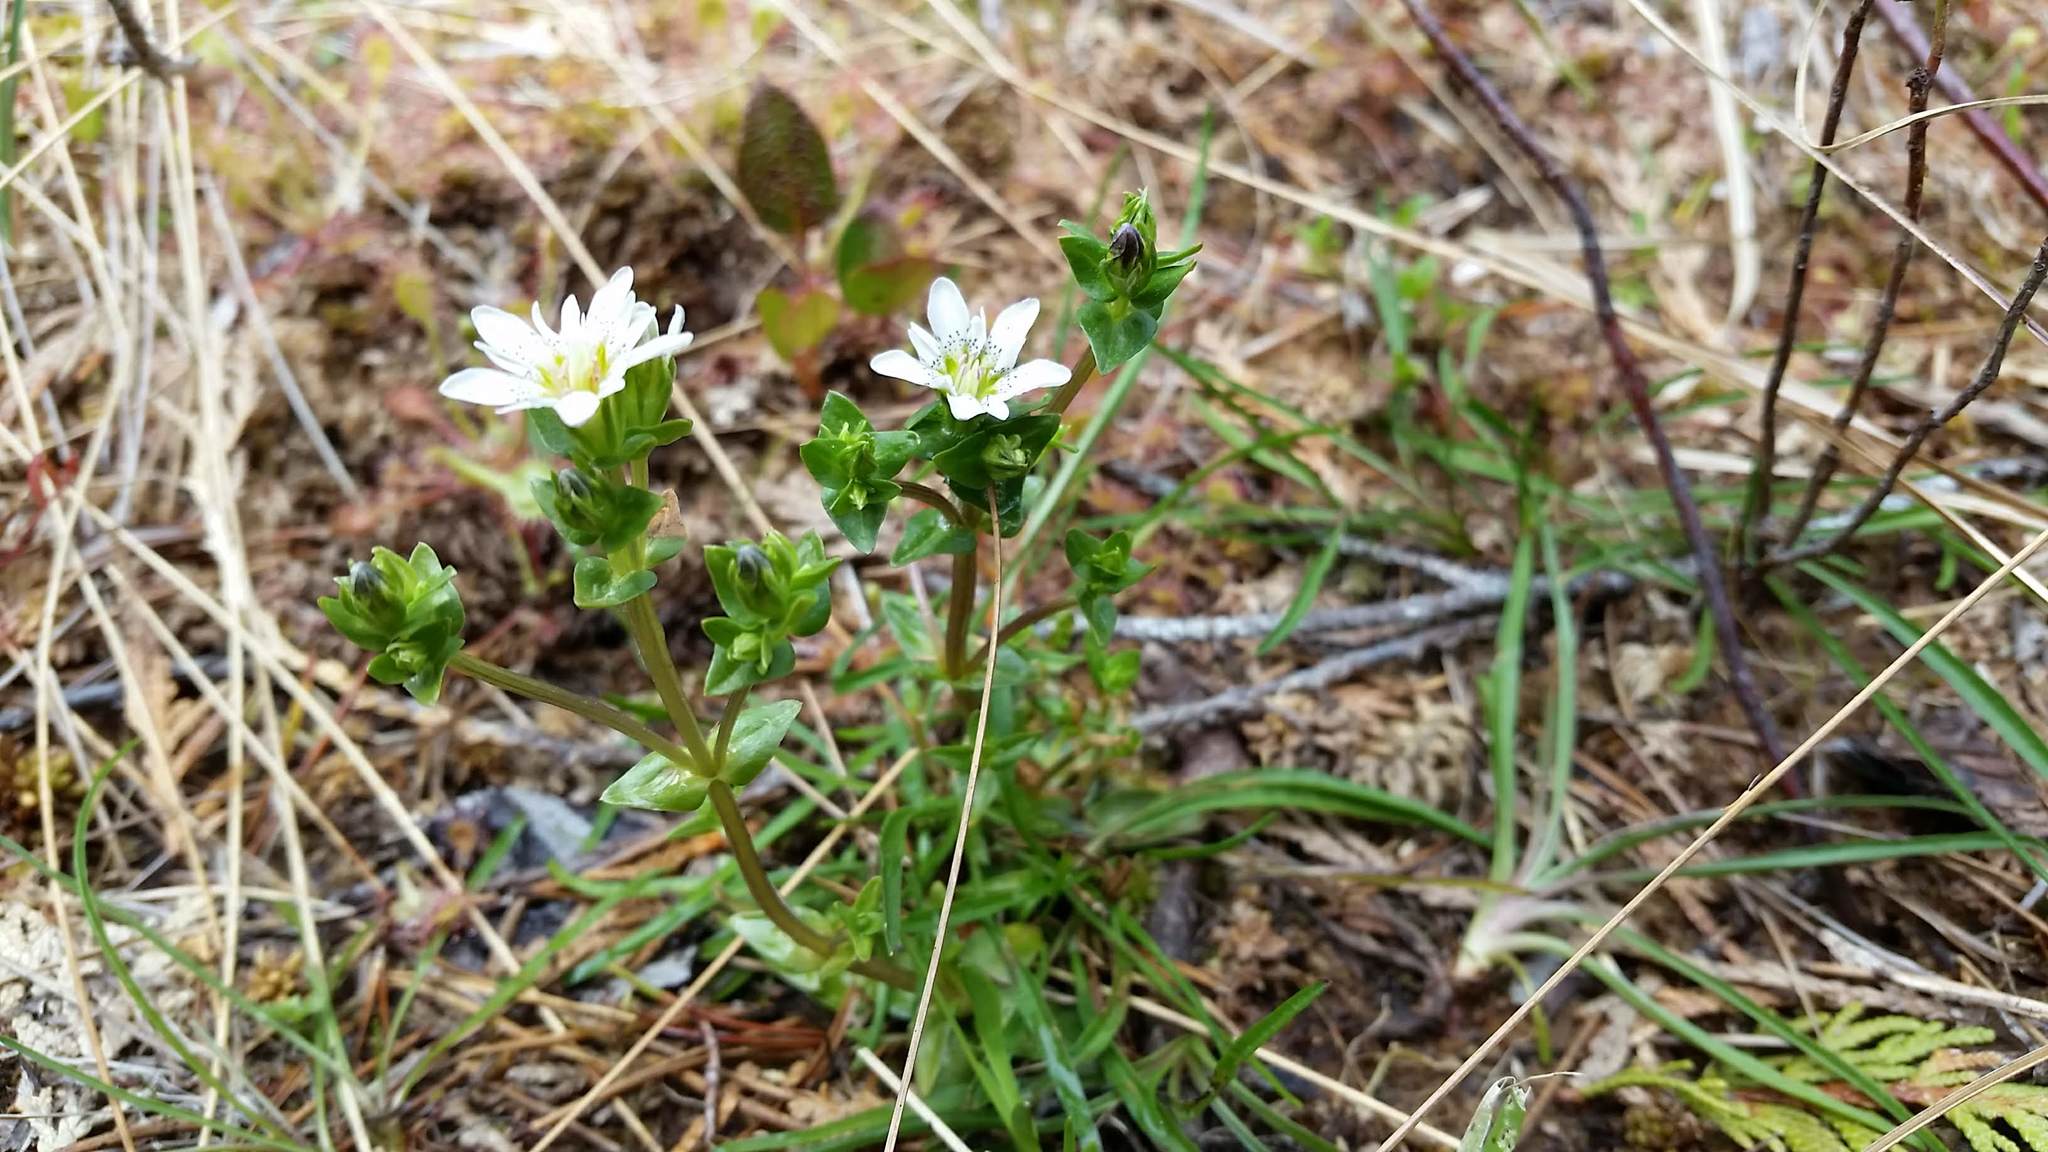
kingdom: Plantae
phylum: Tracheophyta
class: Magnoliopsida
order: Gentianales
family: Gentianaceae
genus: Gentiana
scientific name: Gentiana douglasiana
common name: Swamp gentian
